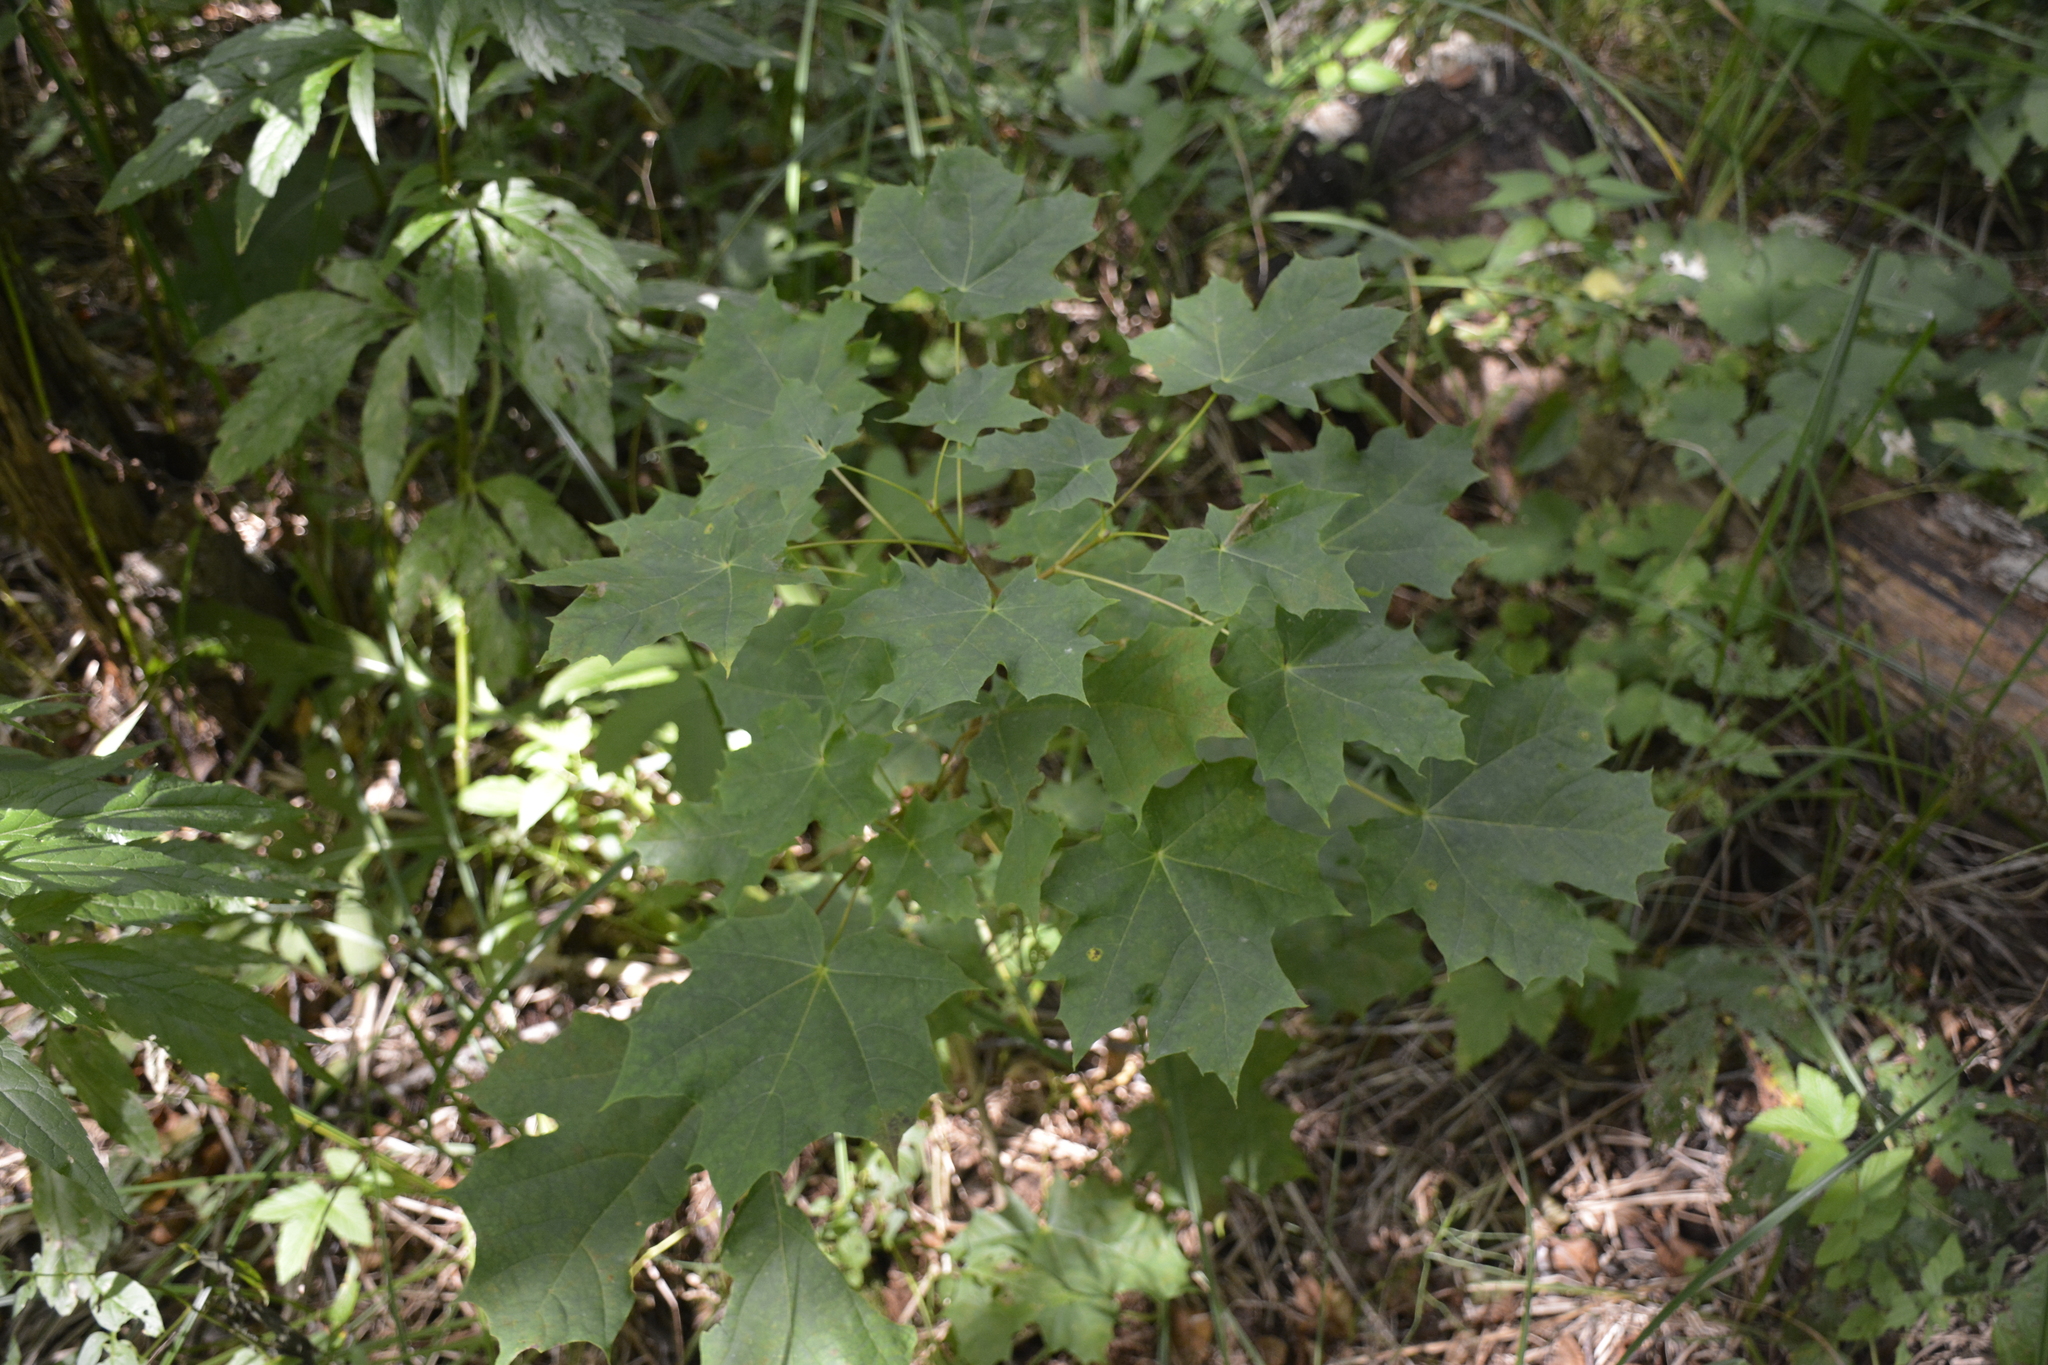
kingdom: Plantae
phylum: Tracheophyta
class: Magnoliopsida
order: Sapindales
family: Sapindaceae
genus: Acer
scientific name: Acer platanoides
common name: Norway maple
